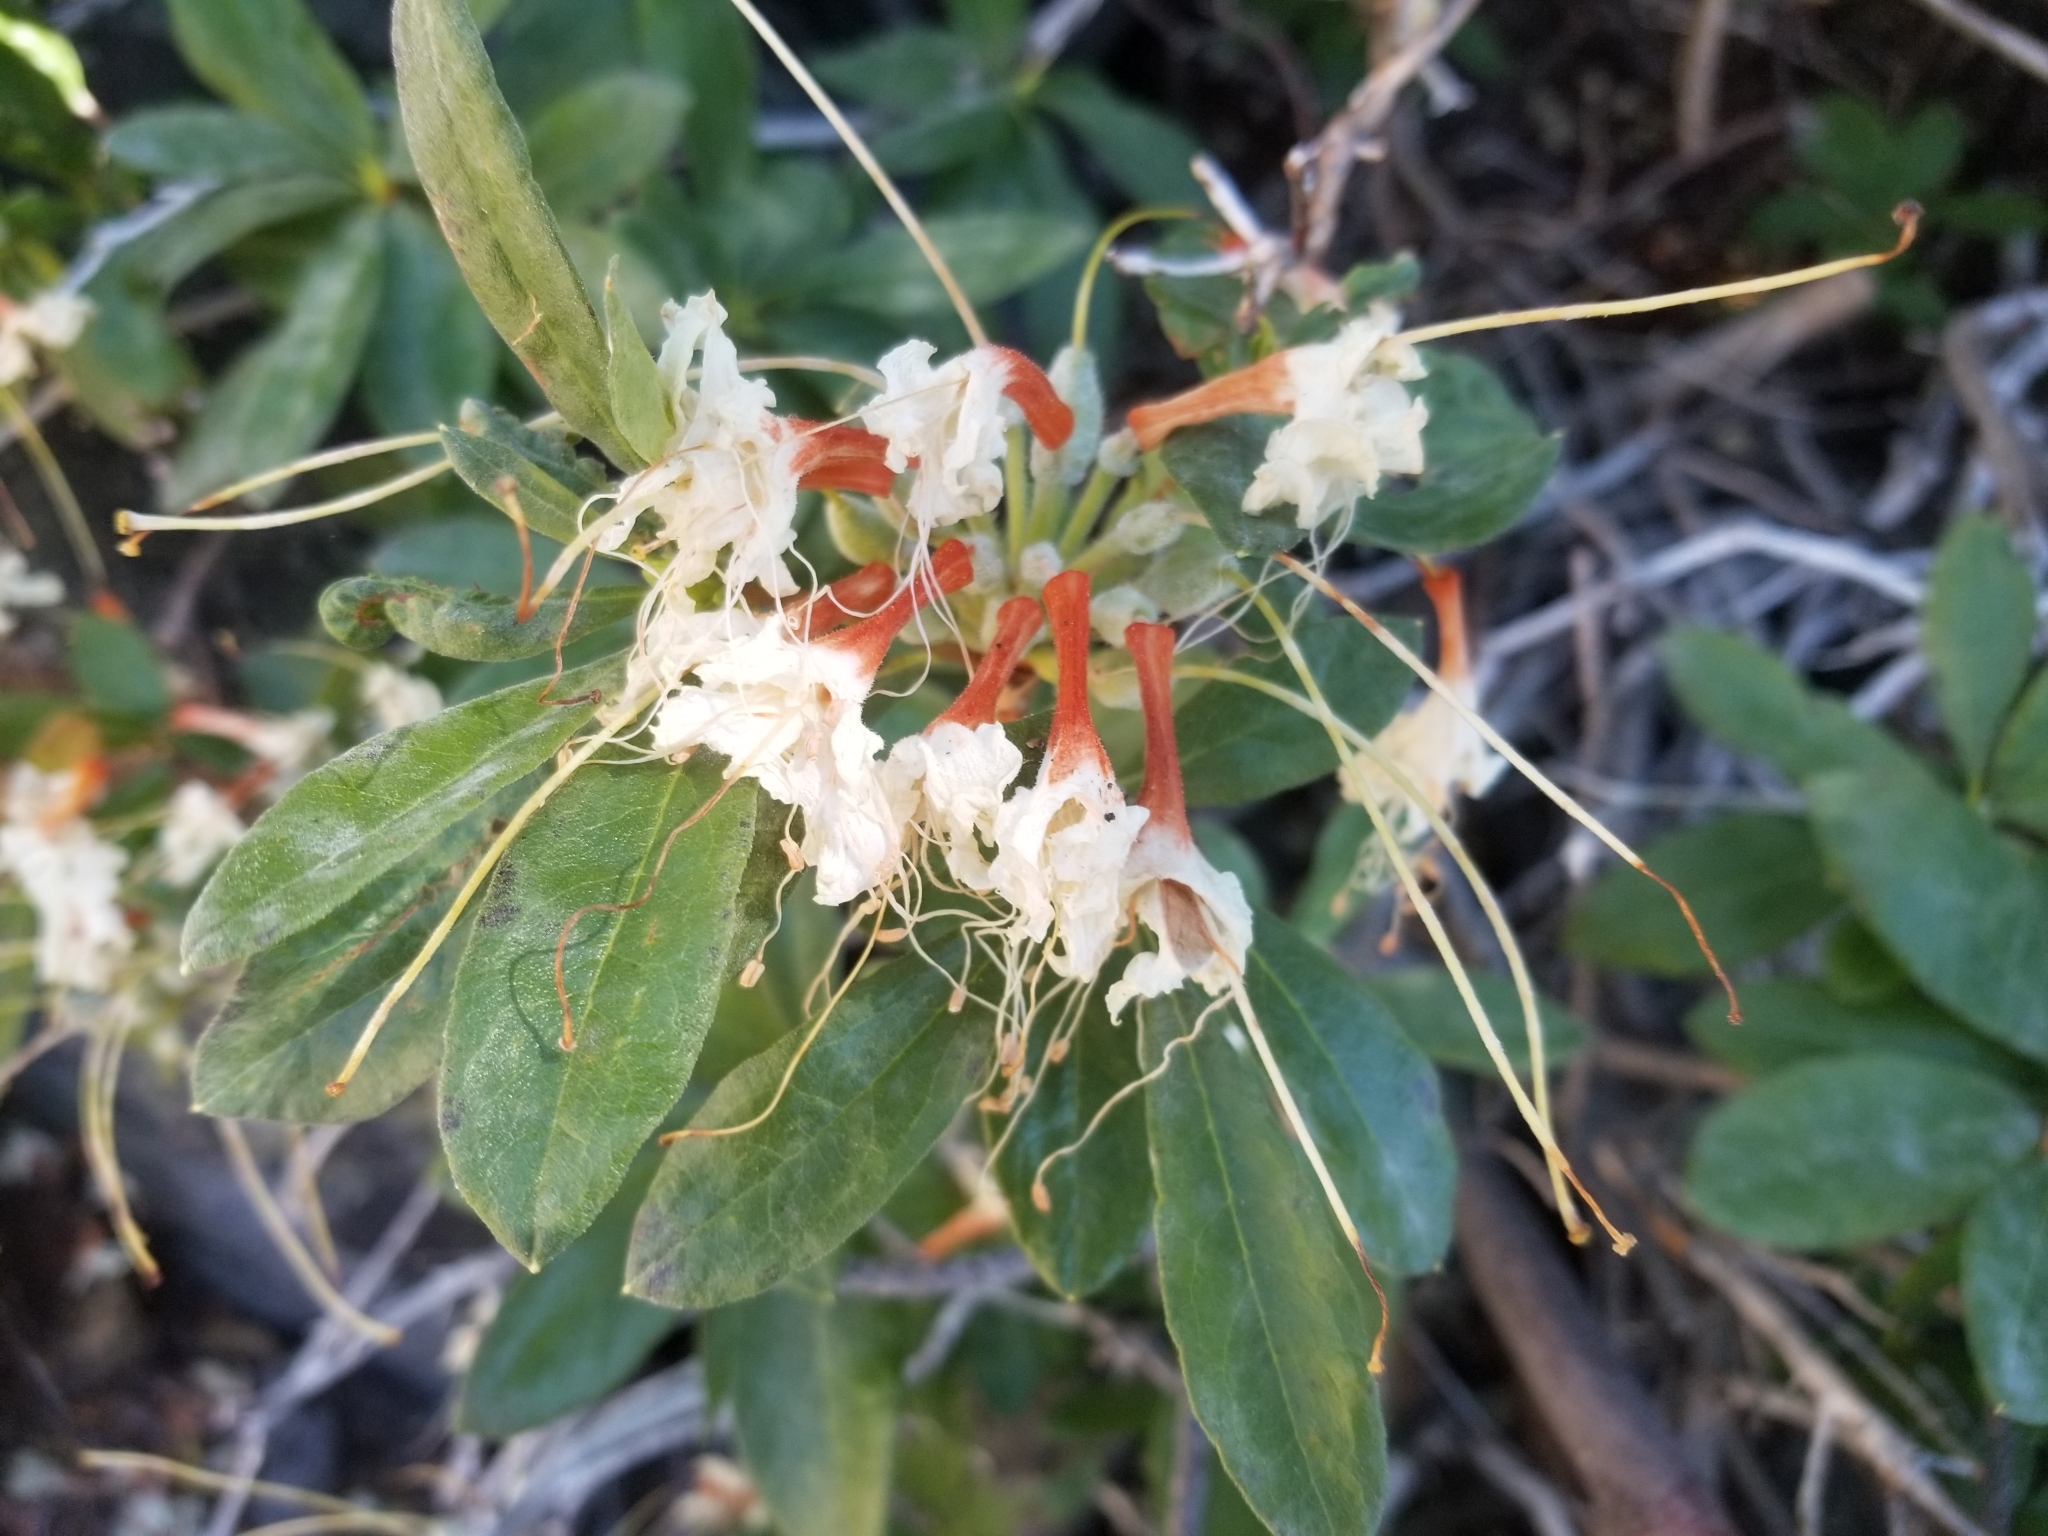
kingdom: Plantae
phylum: Tracheophyta
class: Magnoliopsida
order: Ericales
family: Ericaceae
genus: Rhododendron
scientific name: Rhododendron occidentale
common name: Western azalea
